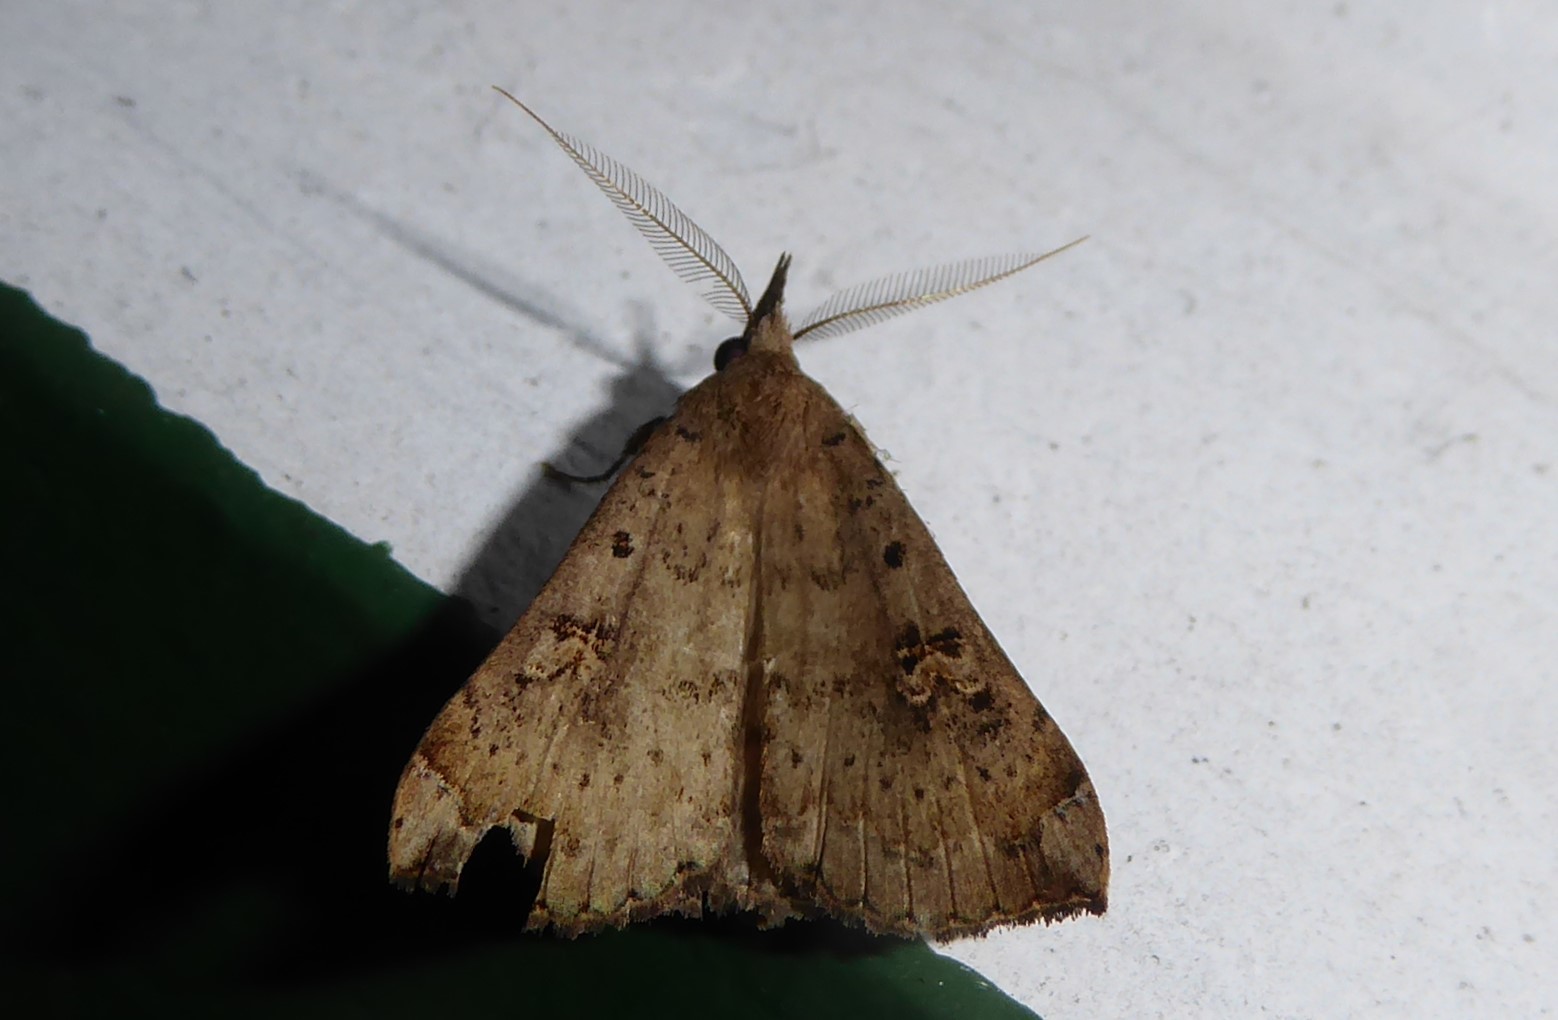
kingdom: Animalia
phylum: Arthropoda
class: Insecta
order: Lepidoptera
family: Erebidae
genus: Rhapsa
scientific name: Rhapsa scotosialis
